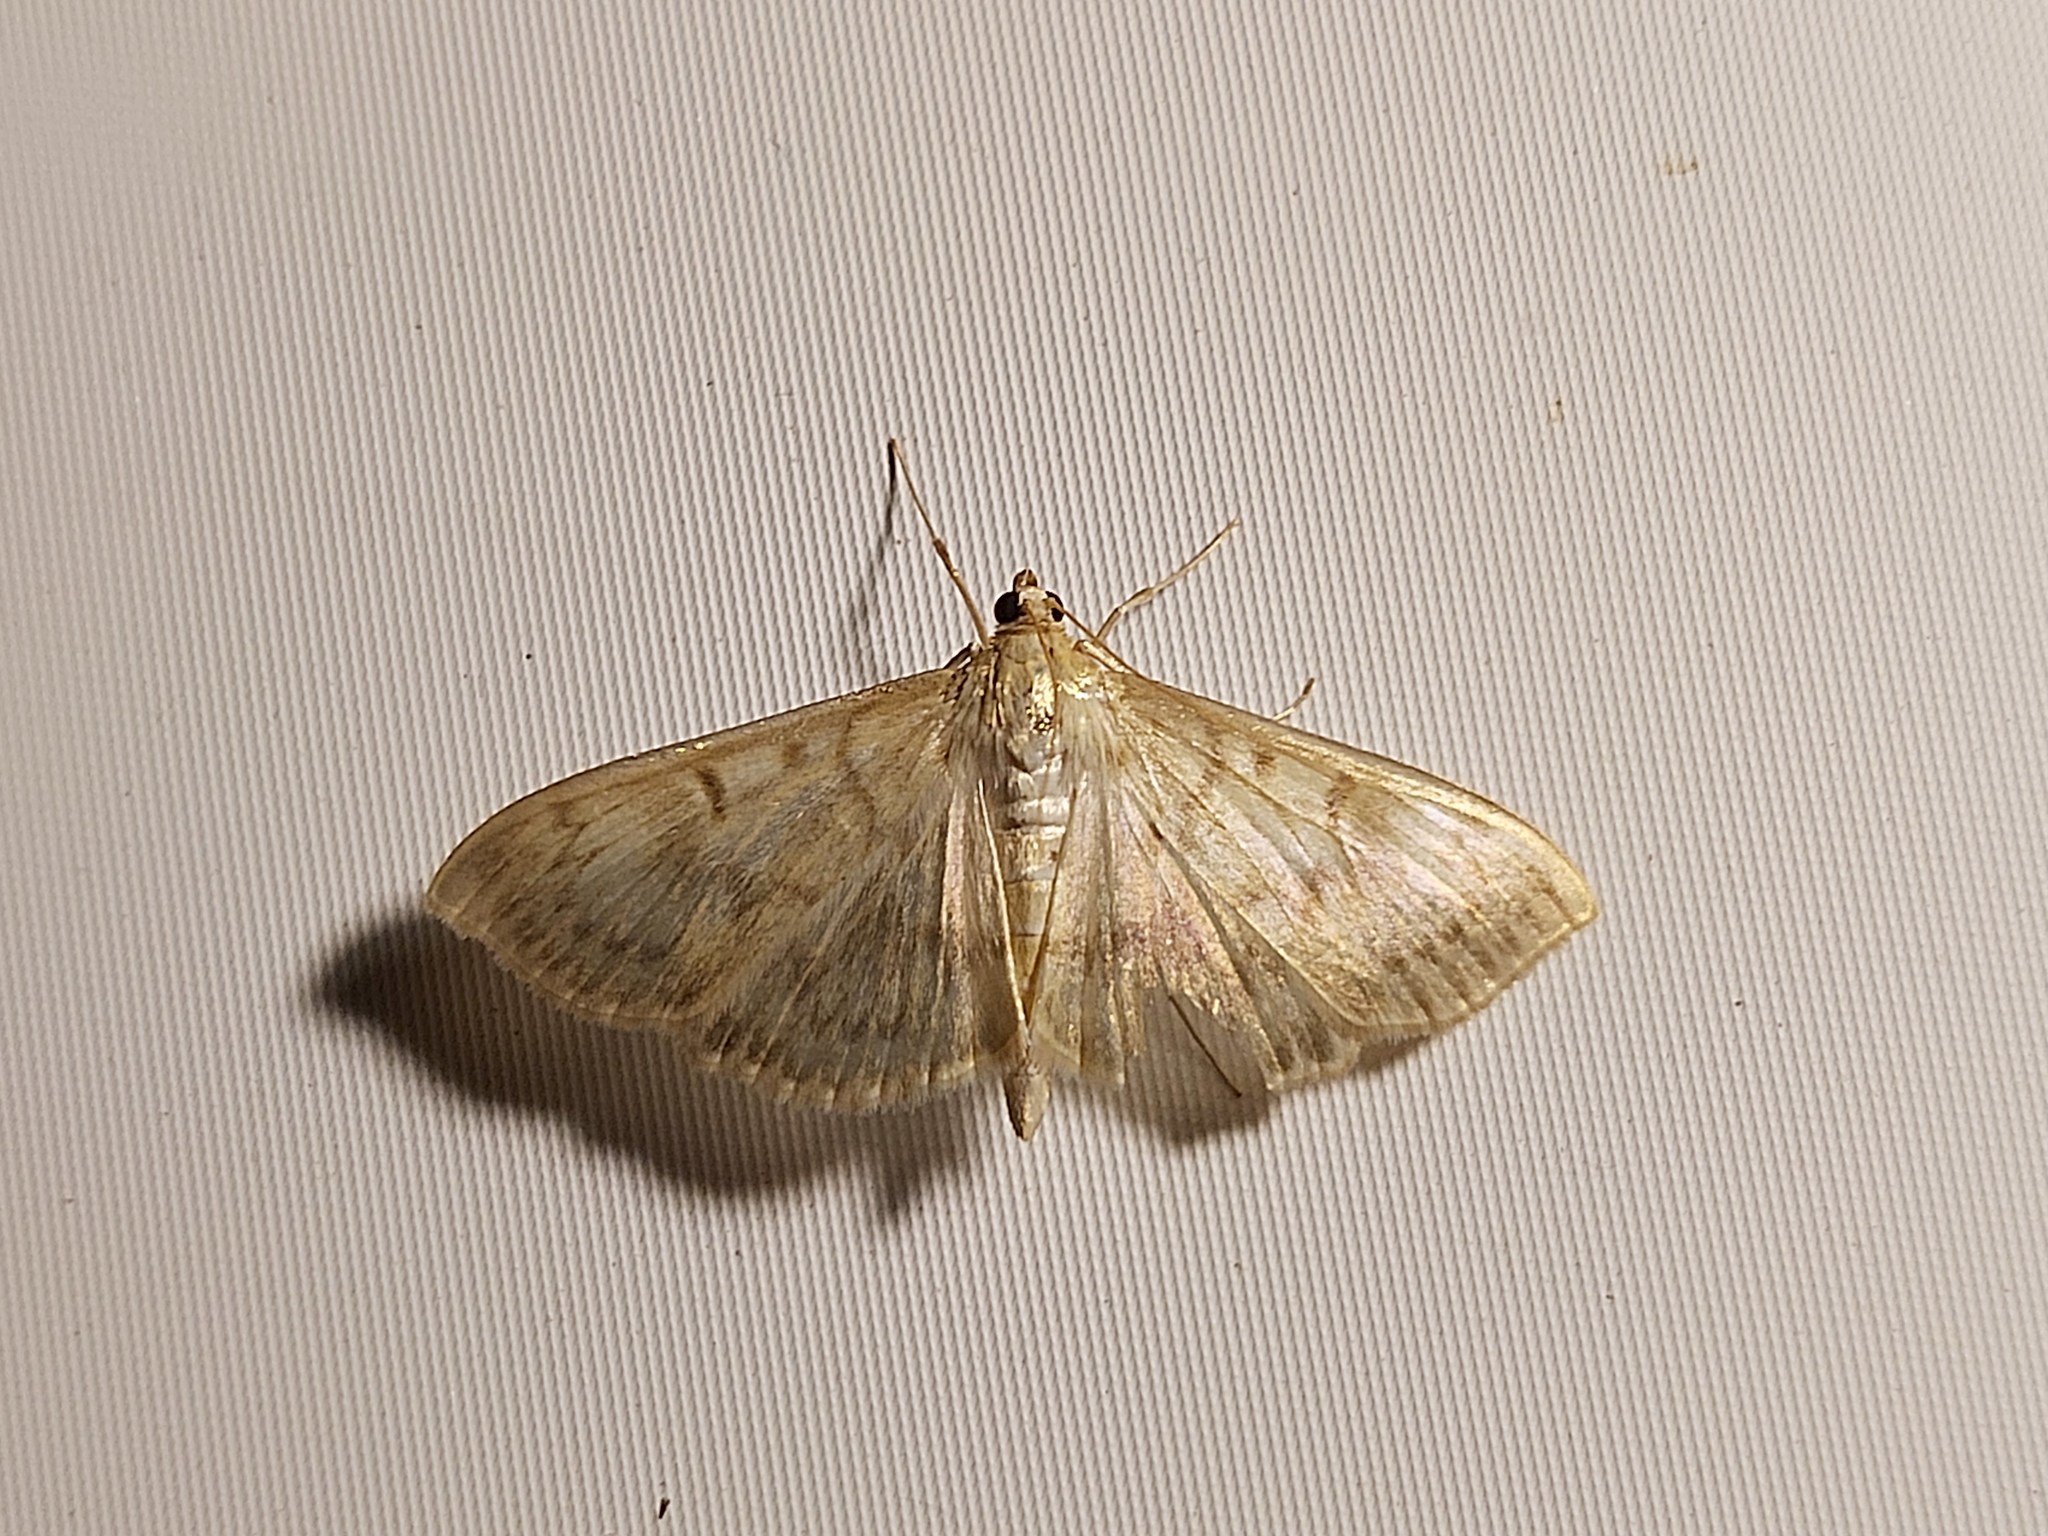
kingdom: Animalia
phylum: Arthropoda
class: Insecta
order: Lepidoptera
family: Crambidae
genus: Patania
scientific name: Patania ruralis
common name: Mother of pearl
